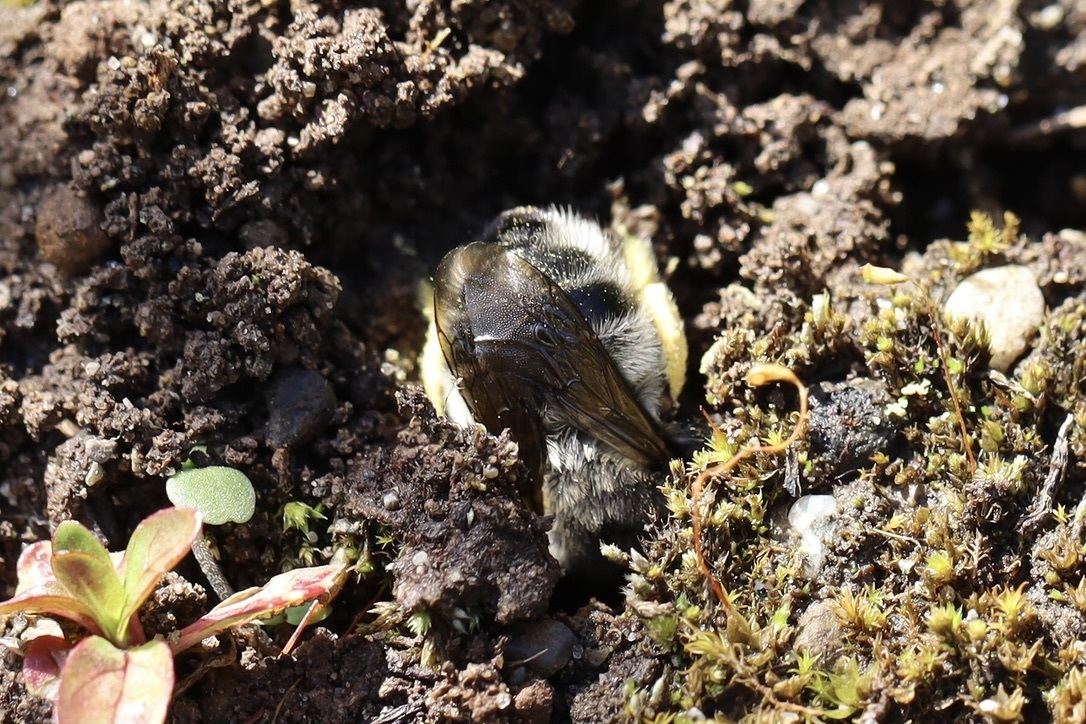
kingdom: Animalia
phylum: Arthropoda
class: Insecta
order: Hymenoptera
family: Apidae
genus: Anthophora
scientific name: Anthophora pacifica
